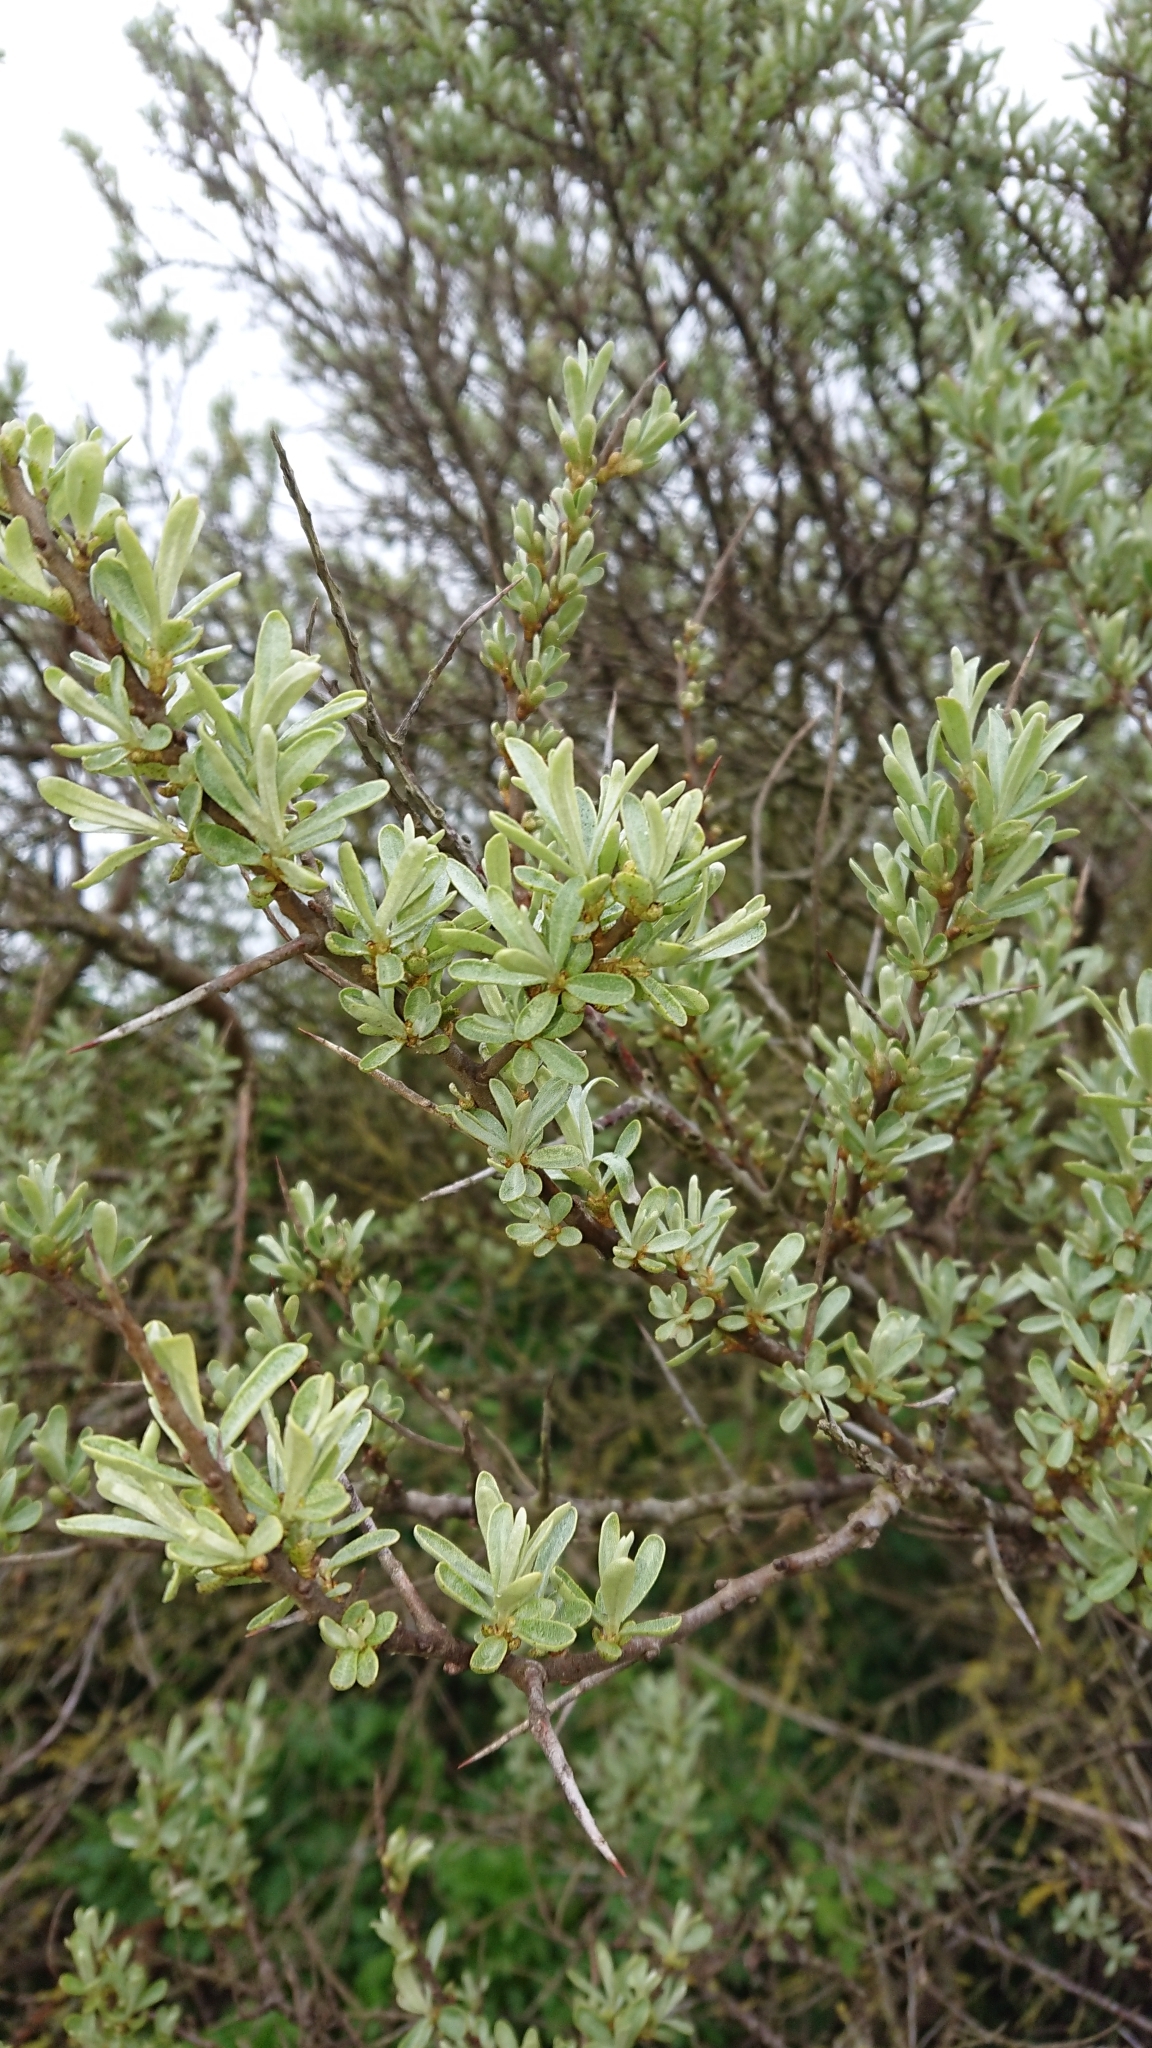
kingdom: Plantae
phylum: Tracheophyta
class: Magnoliopsida
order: Rosales
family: Elaeagnaceae
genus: Hippophae
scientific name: Hippophae rhamnoides
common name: Sea-buckthorn
